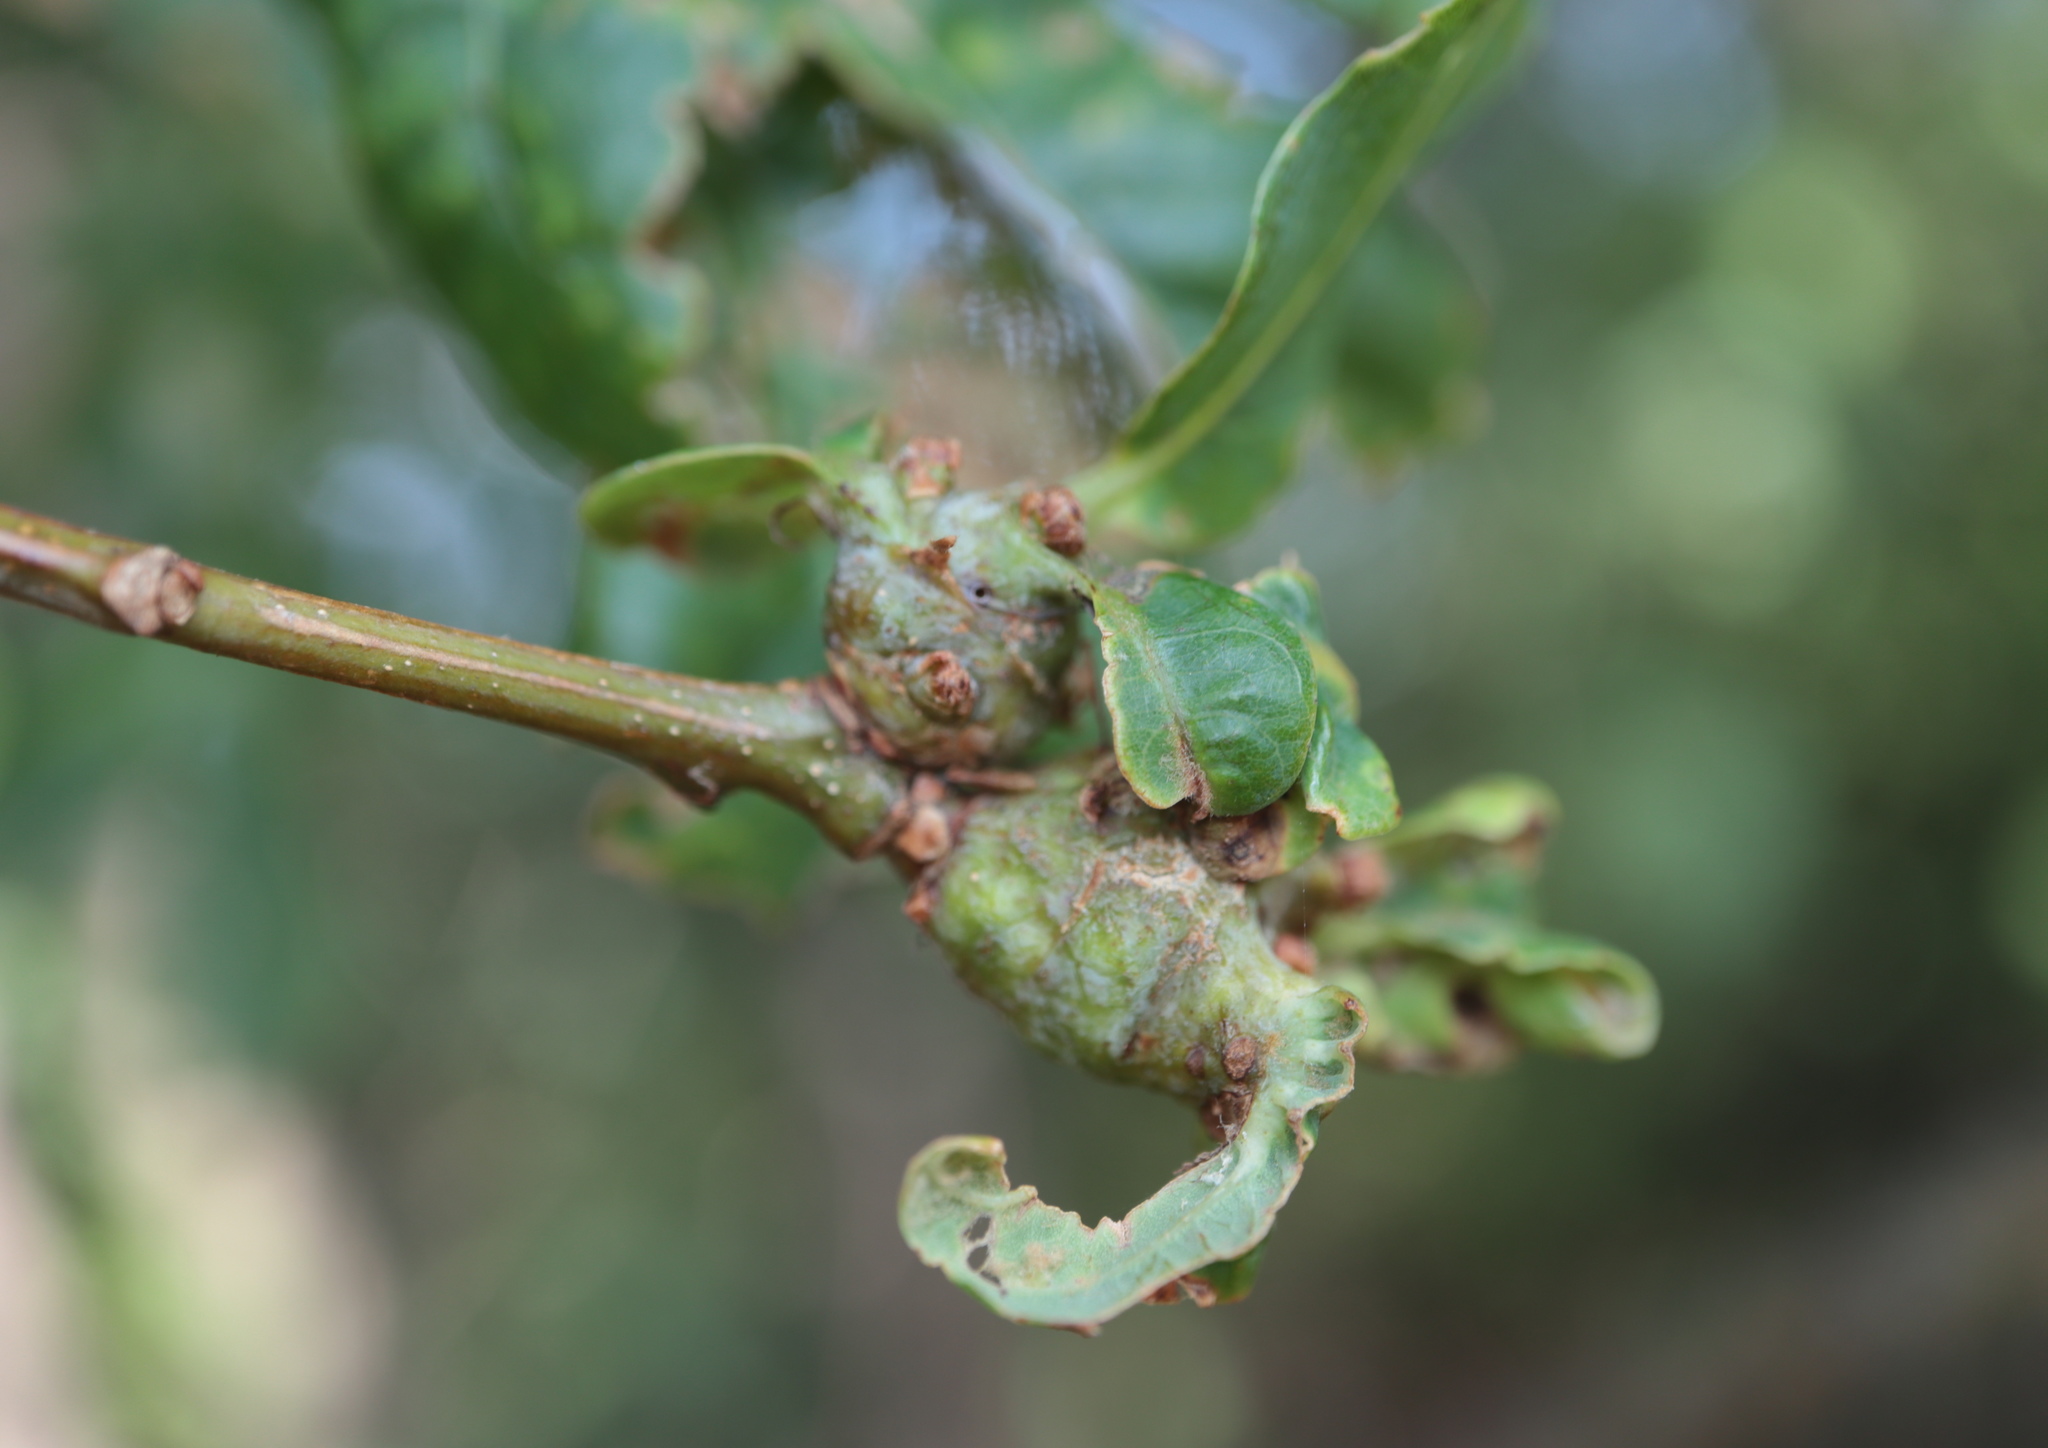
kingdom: Animalia
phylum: Arthropoda
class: Insecta
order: Hymenoptera
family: Cynipidae
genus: Neuroterus
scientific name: Neuroterus quercusbaccarum
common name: Common spangle gall
